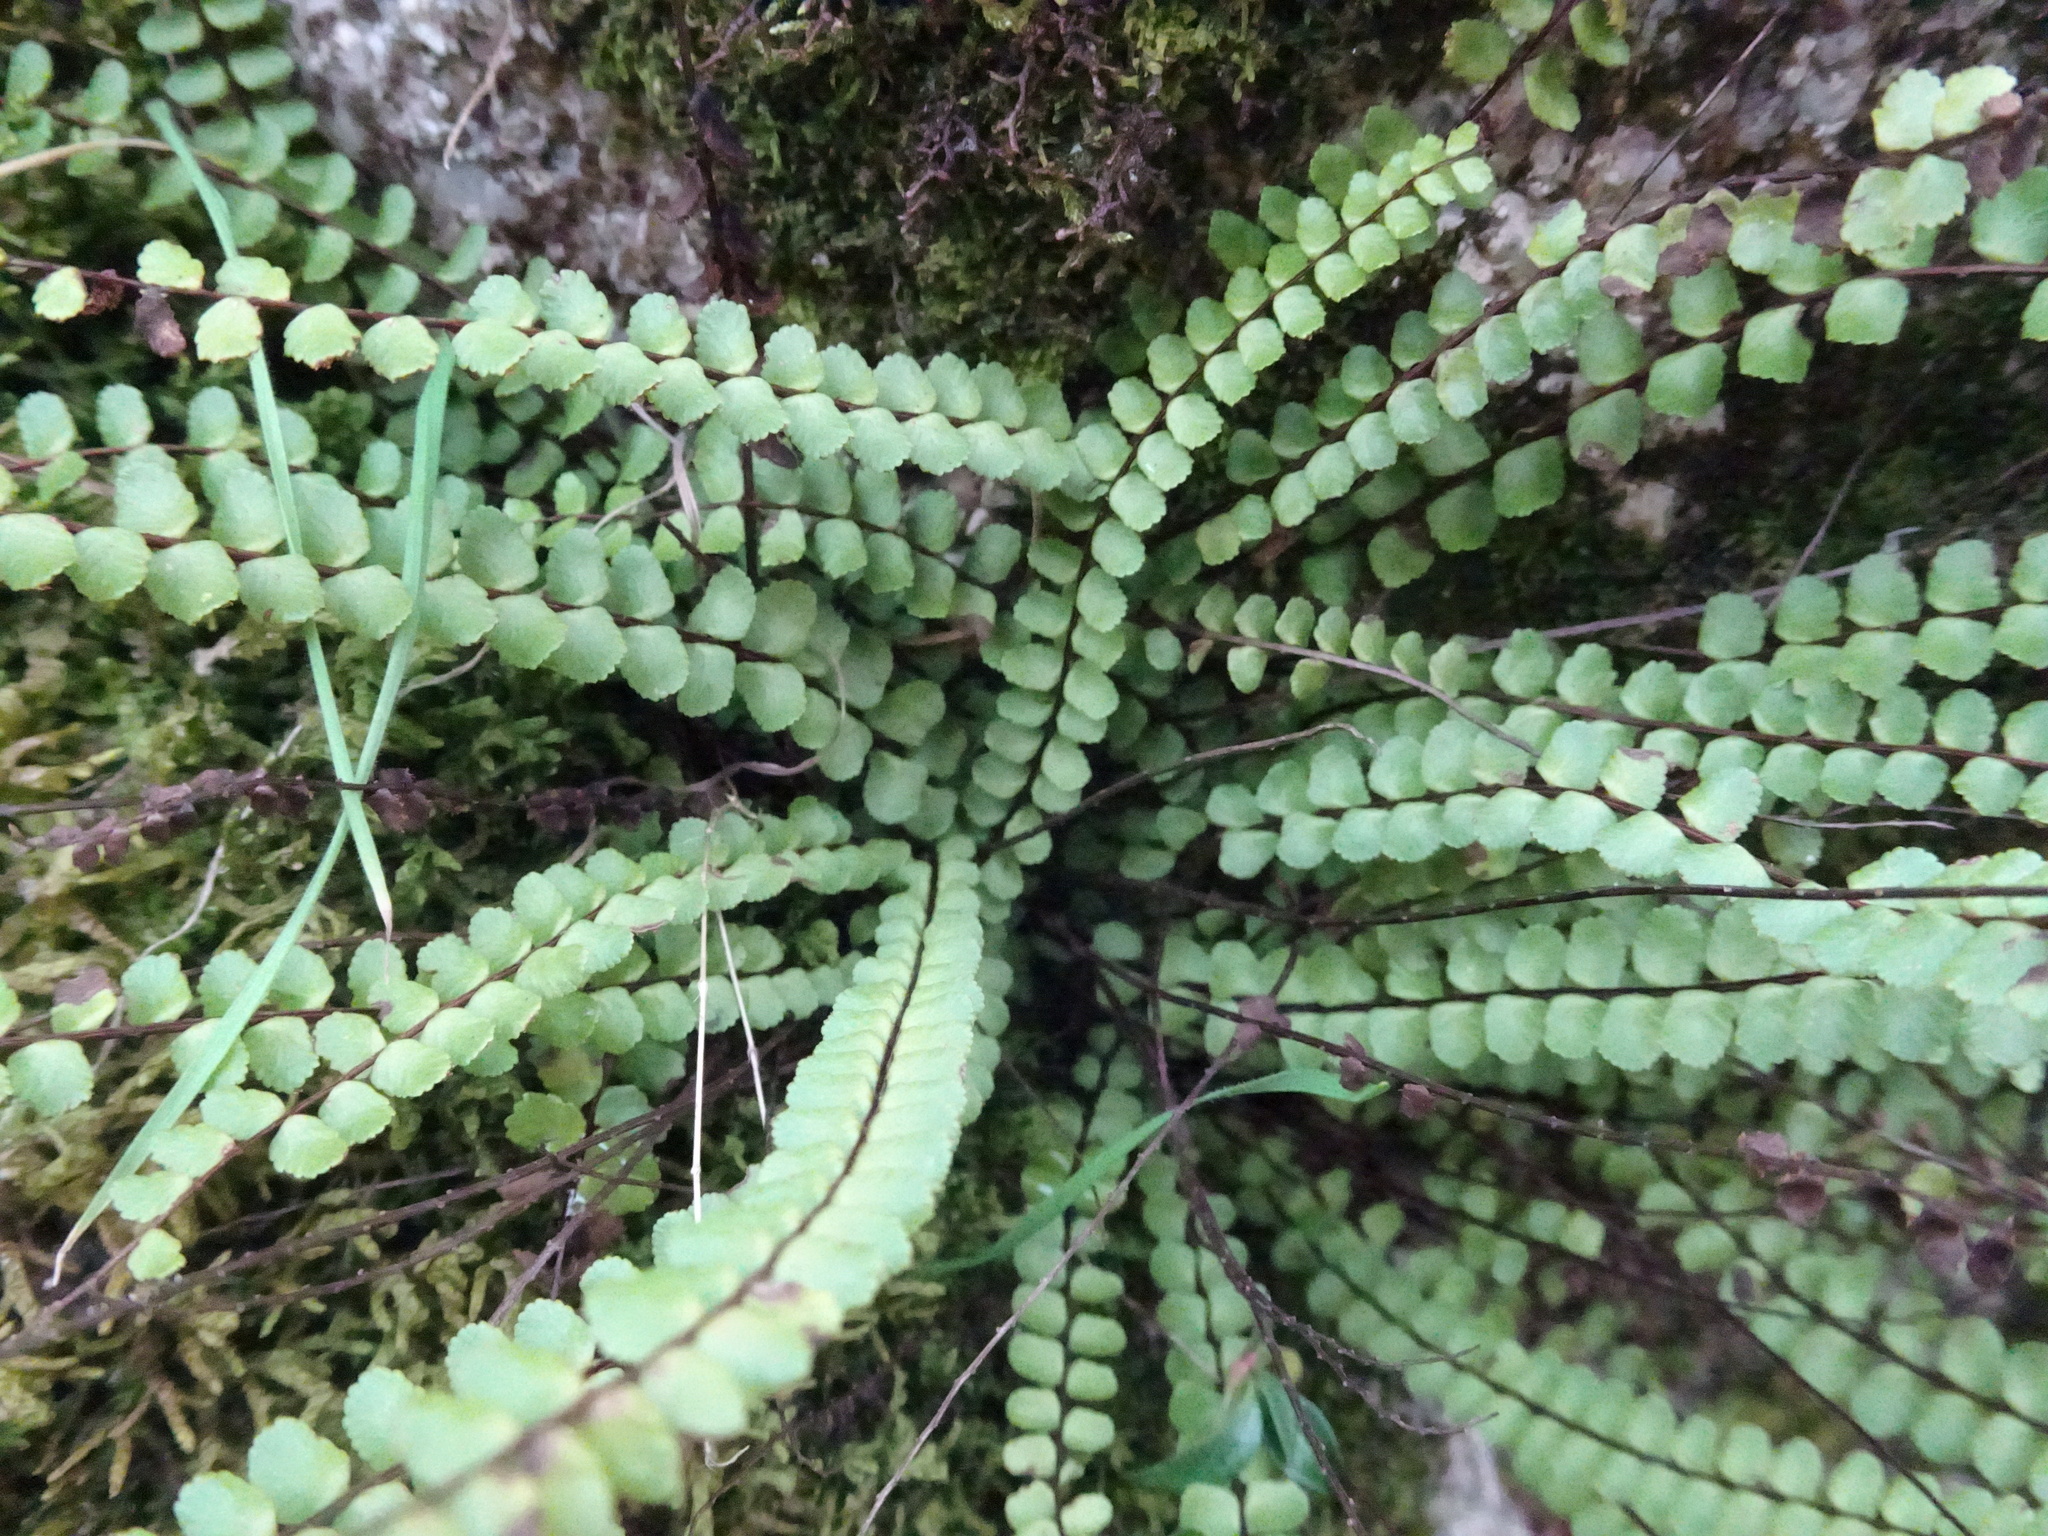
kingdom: Plantae
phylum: Tracheophyta
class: Polypodiopsida
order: Polypodiales
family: Aspleniaceae
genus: Asplenium
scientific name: Asplenium trichomanes
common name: Maidenhair spleenwort
